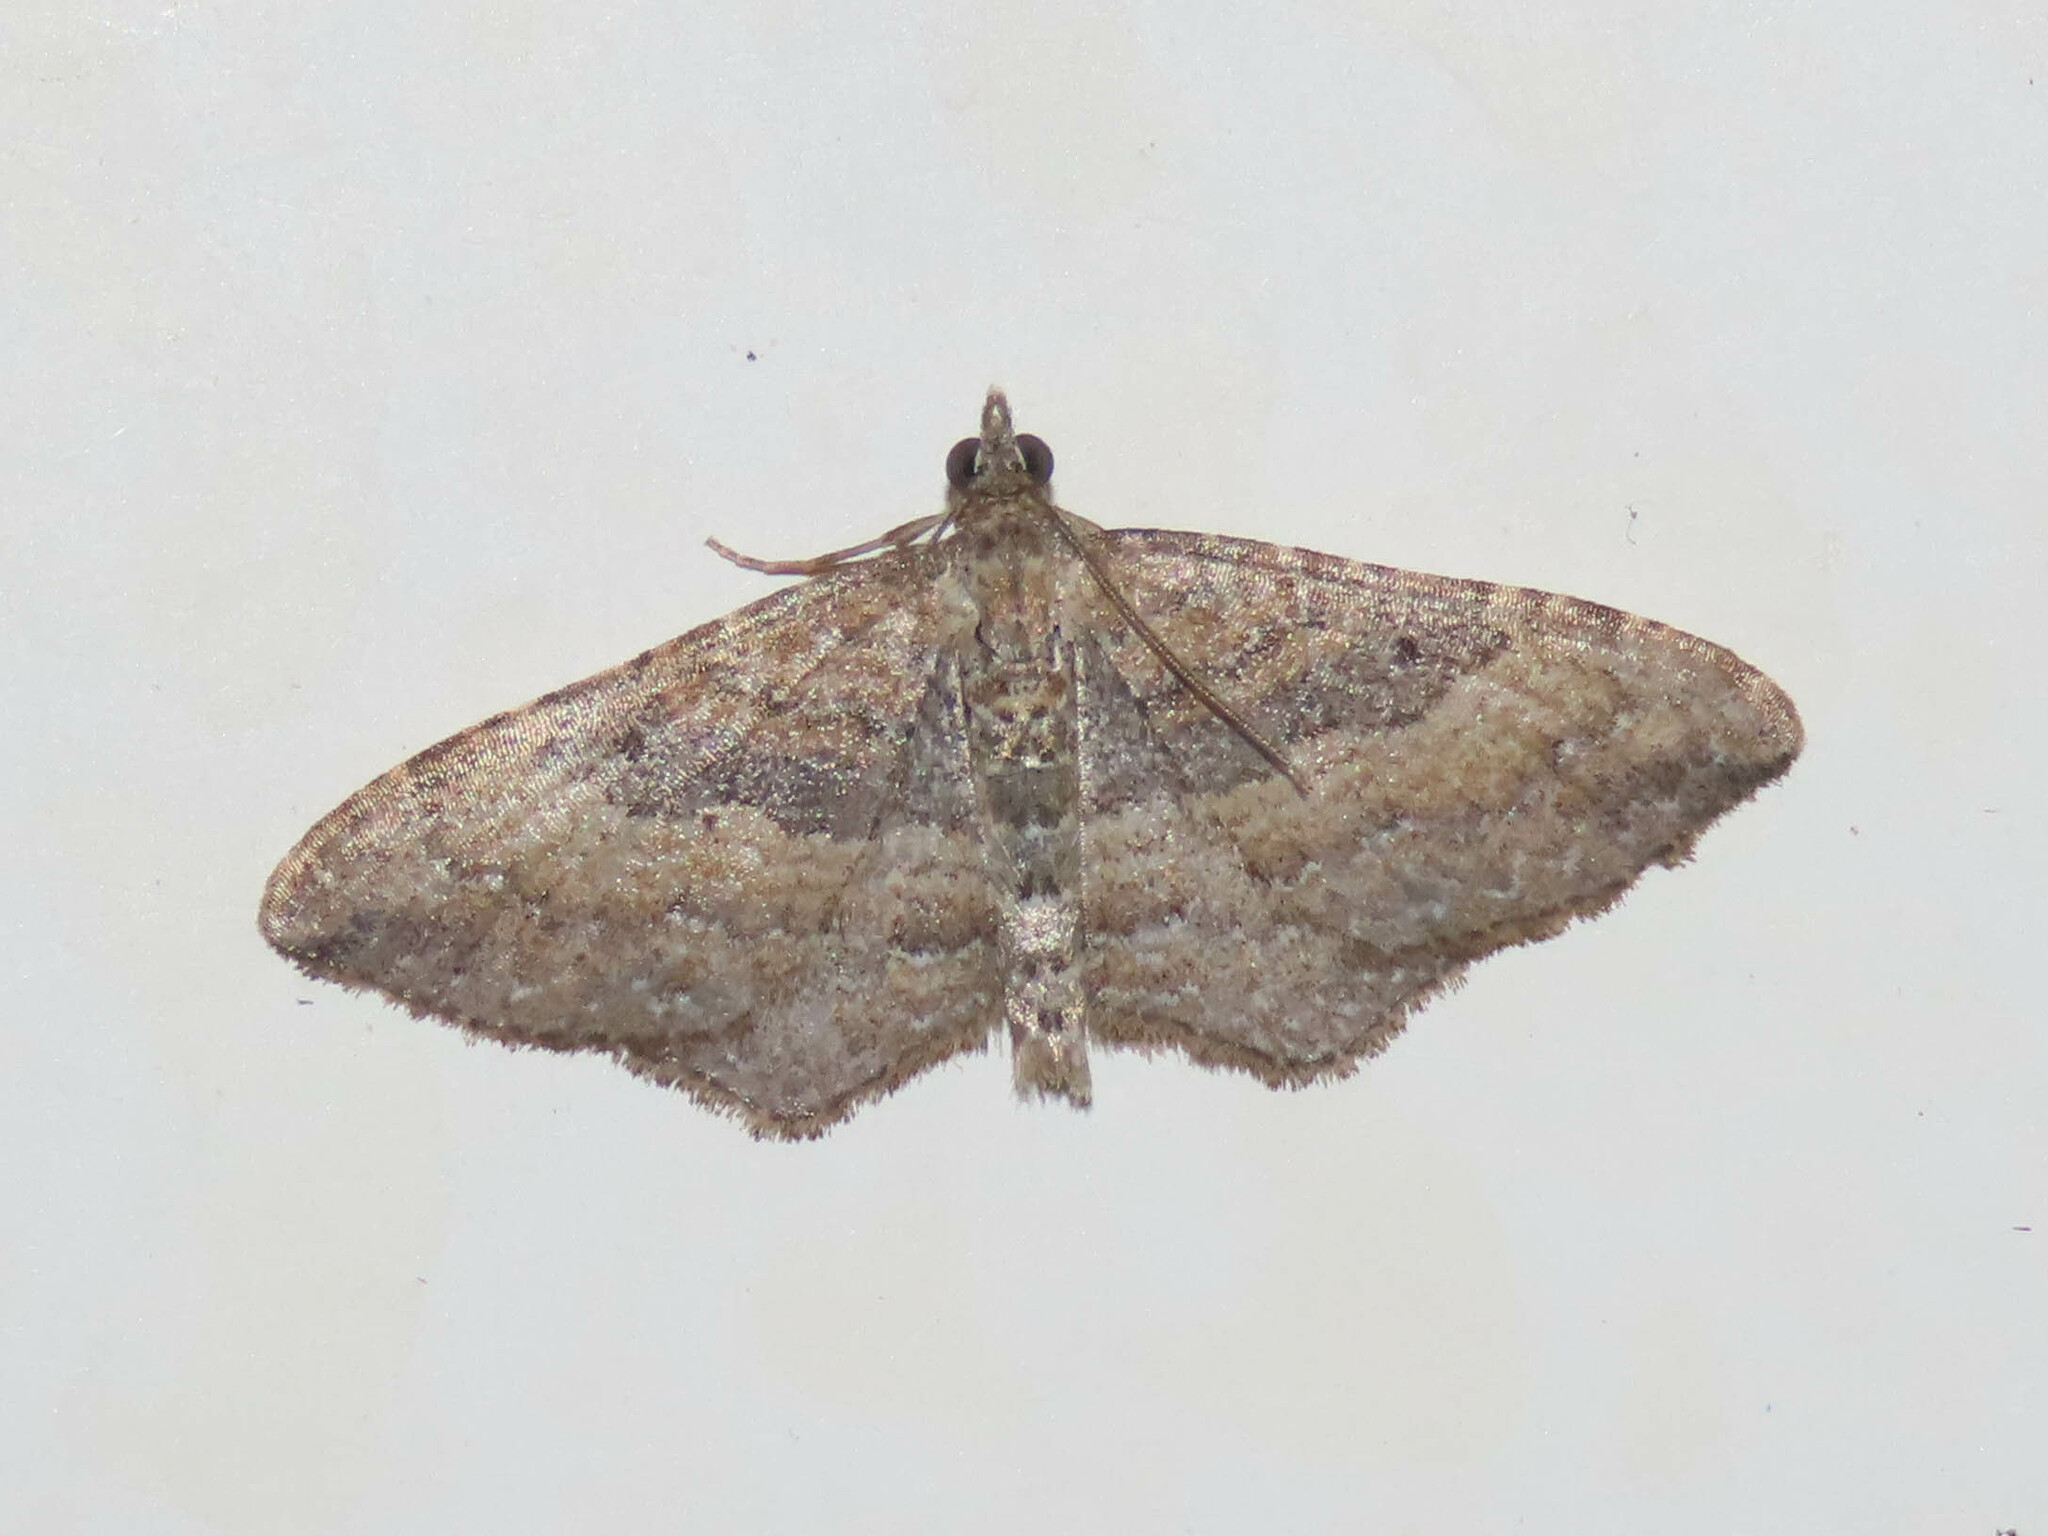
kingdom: Animalia
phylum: Arthropoda
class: Insecta
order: Lepidoptera
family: Geometridae
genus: Orthonama
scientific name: Orthonama obstipata
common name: The gem
